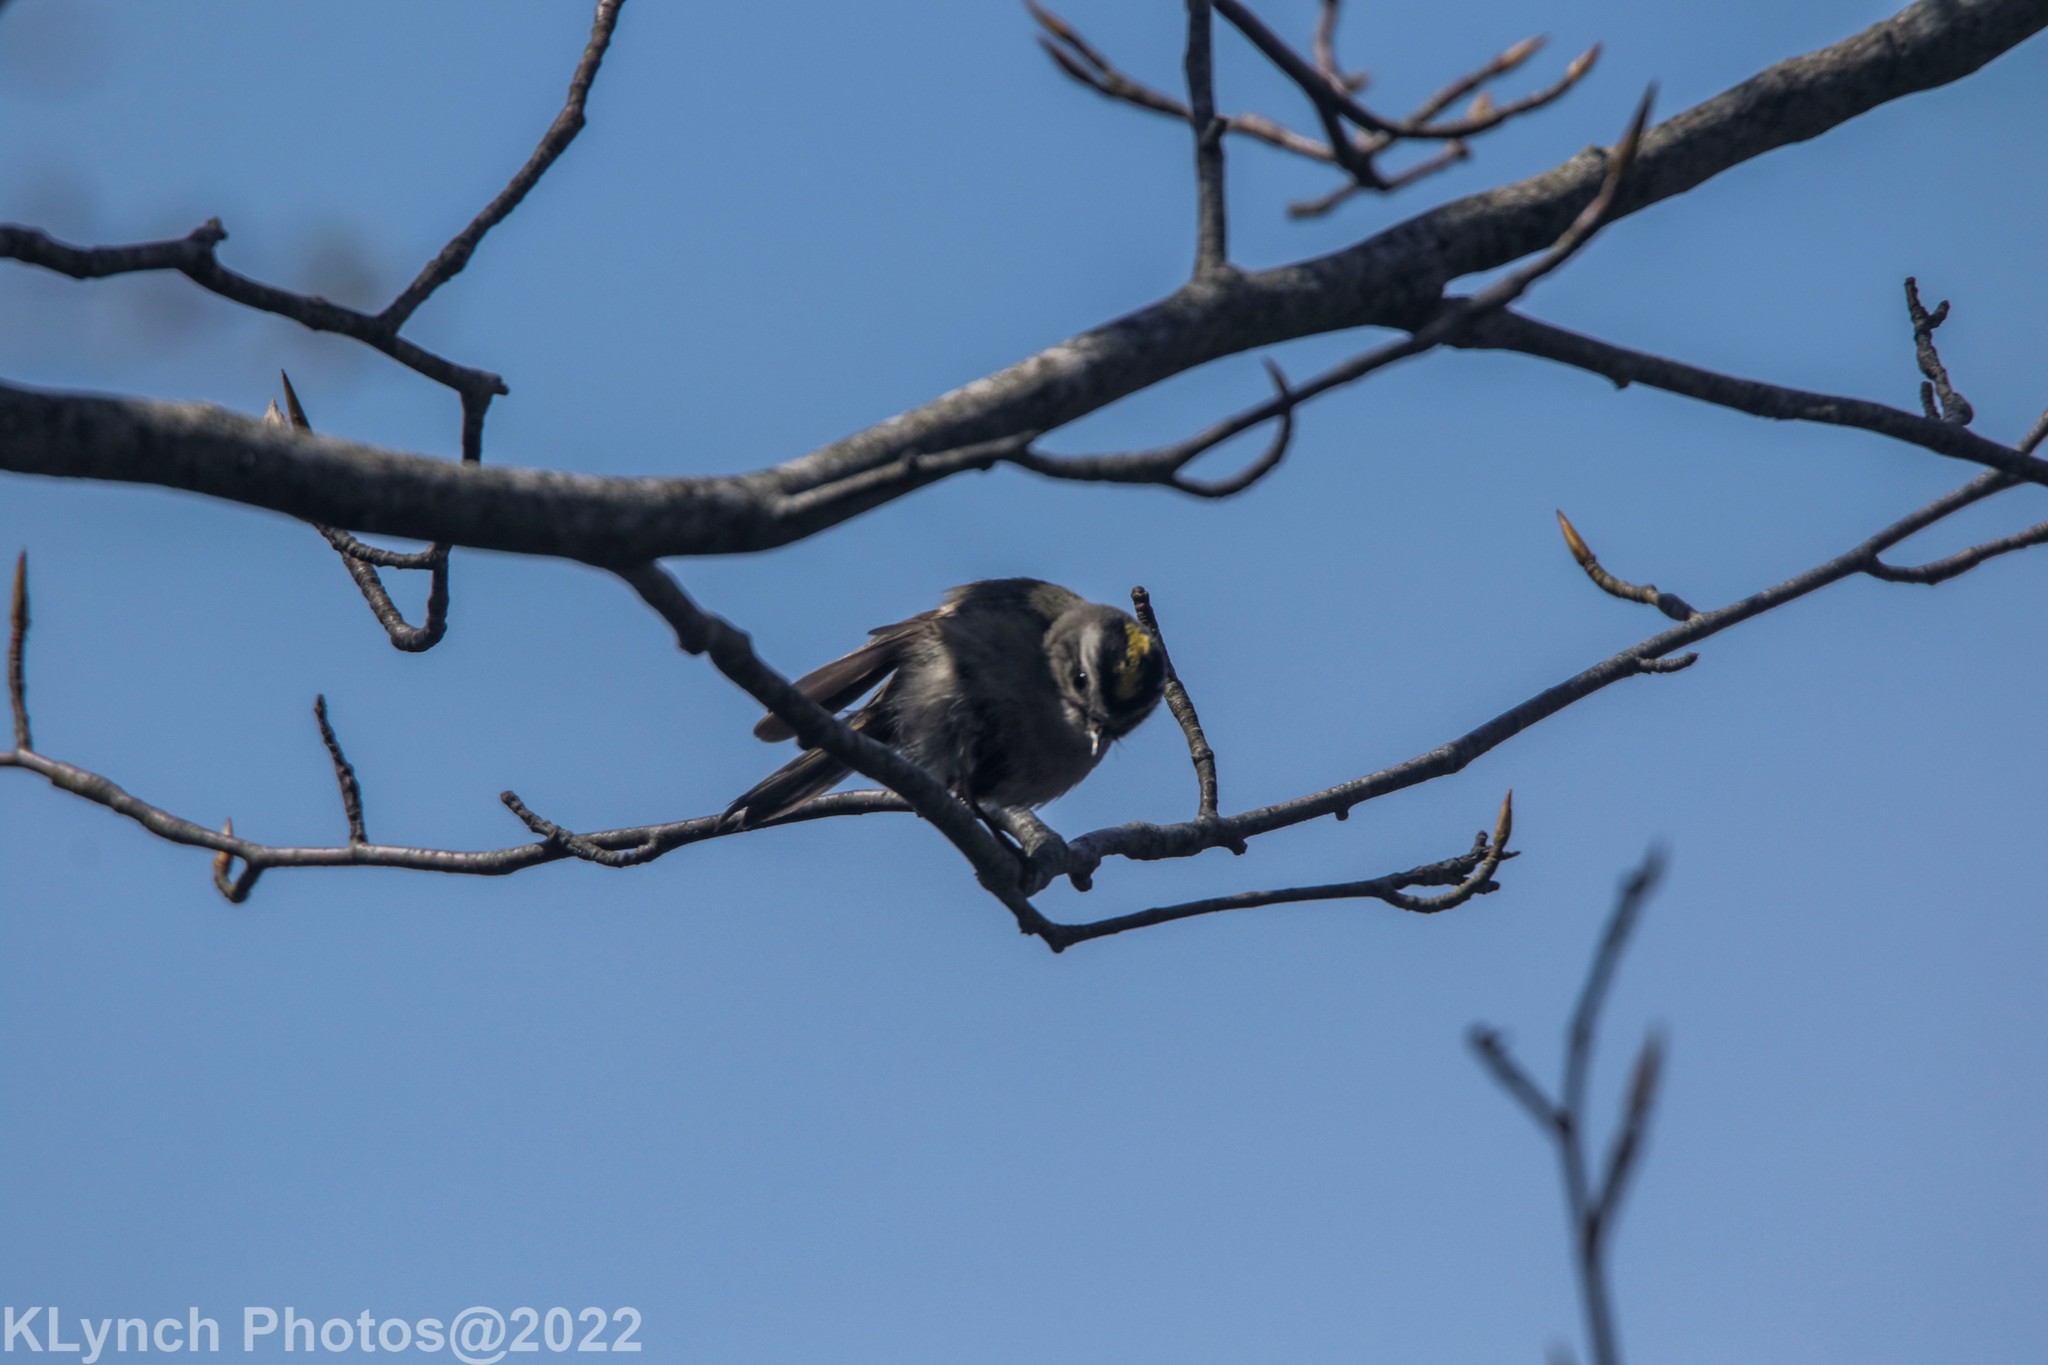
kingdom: Animalia
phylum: Chordata
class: Aves
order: Passeriformes
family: Regulidae
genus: Regulus
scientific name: Regulus satrapa
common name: Golden-crowned kinglet
